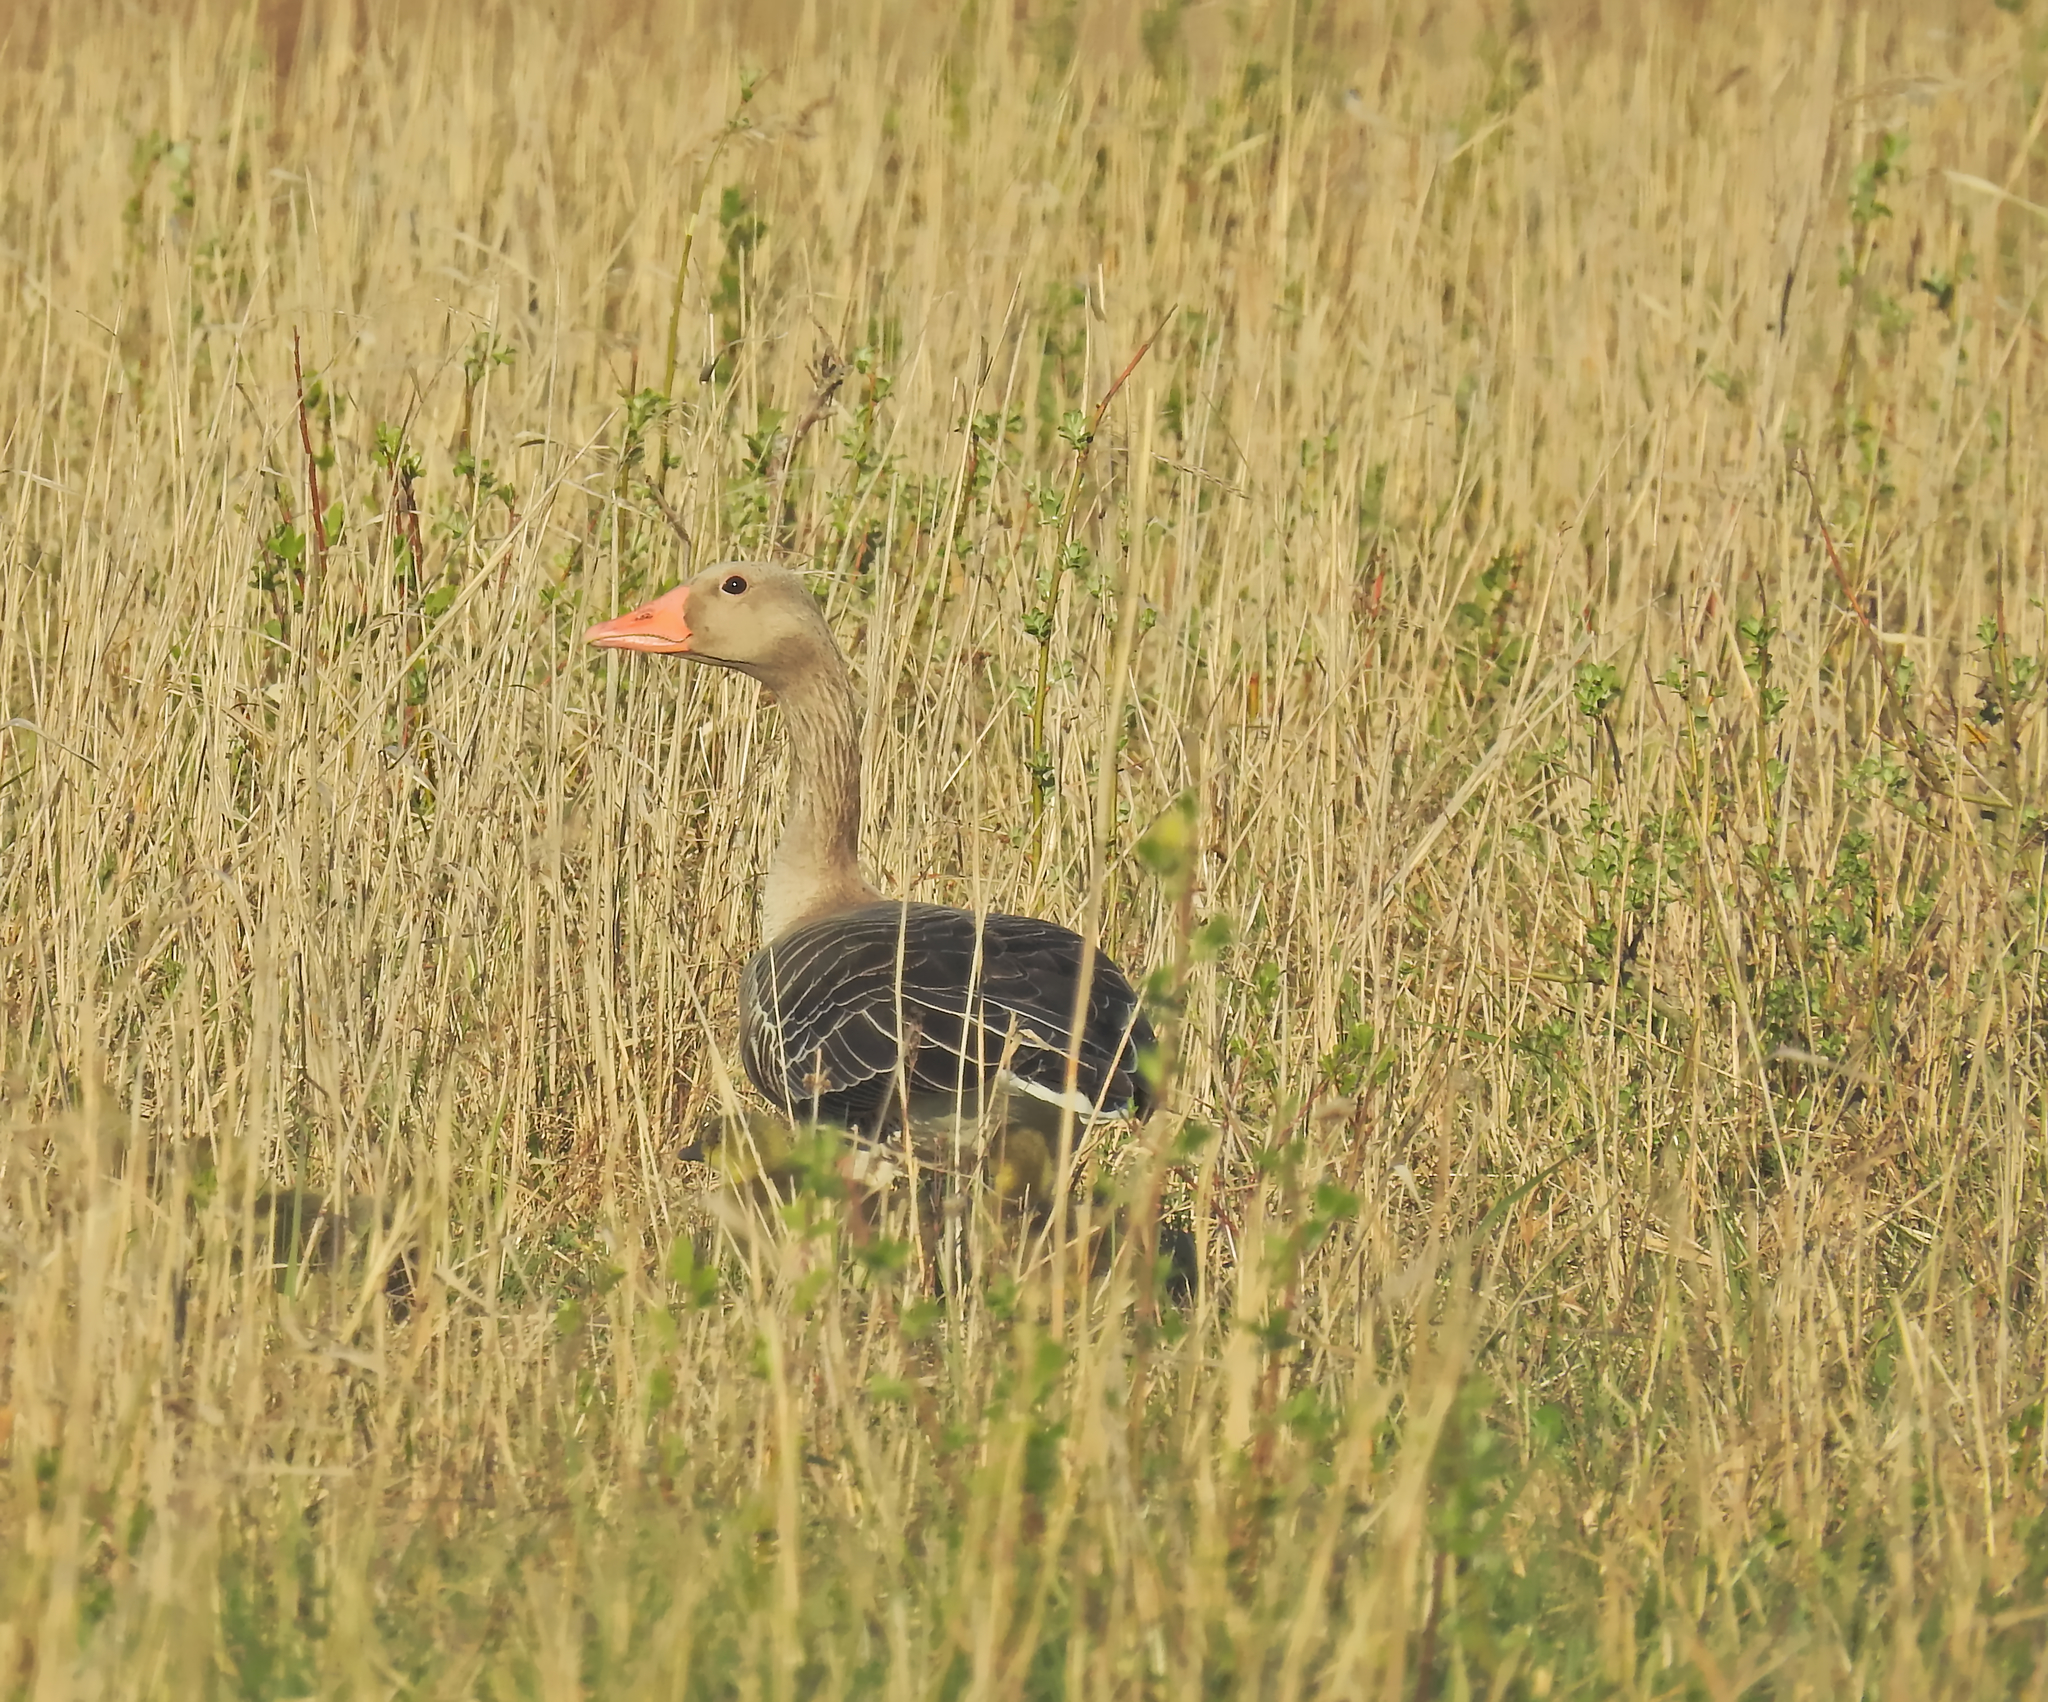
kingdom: Animalia
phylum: Chordata
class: Aves
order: Anseriformes
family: Anatidae
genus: Anser
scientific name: Anser anser
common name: Greylag goose
